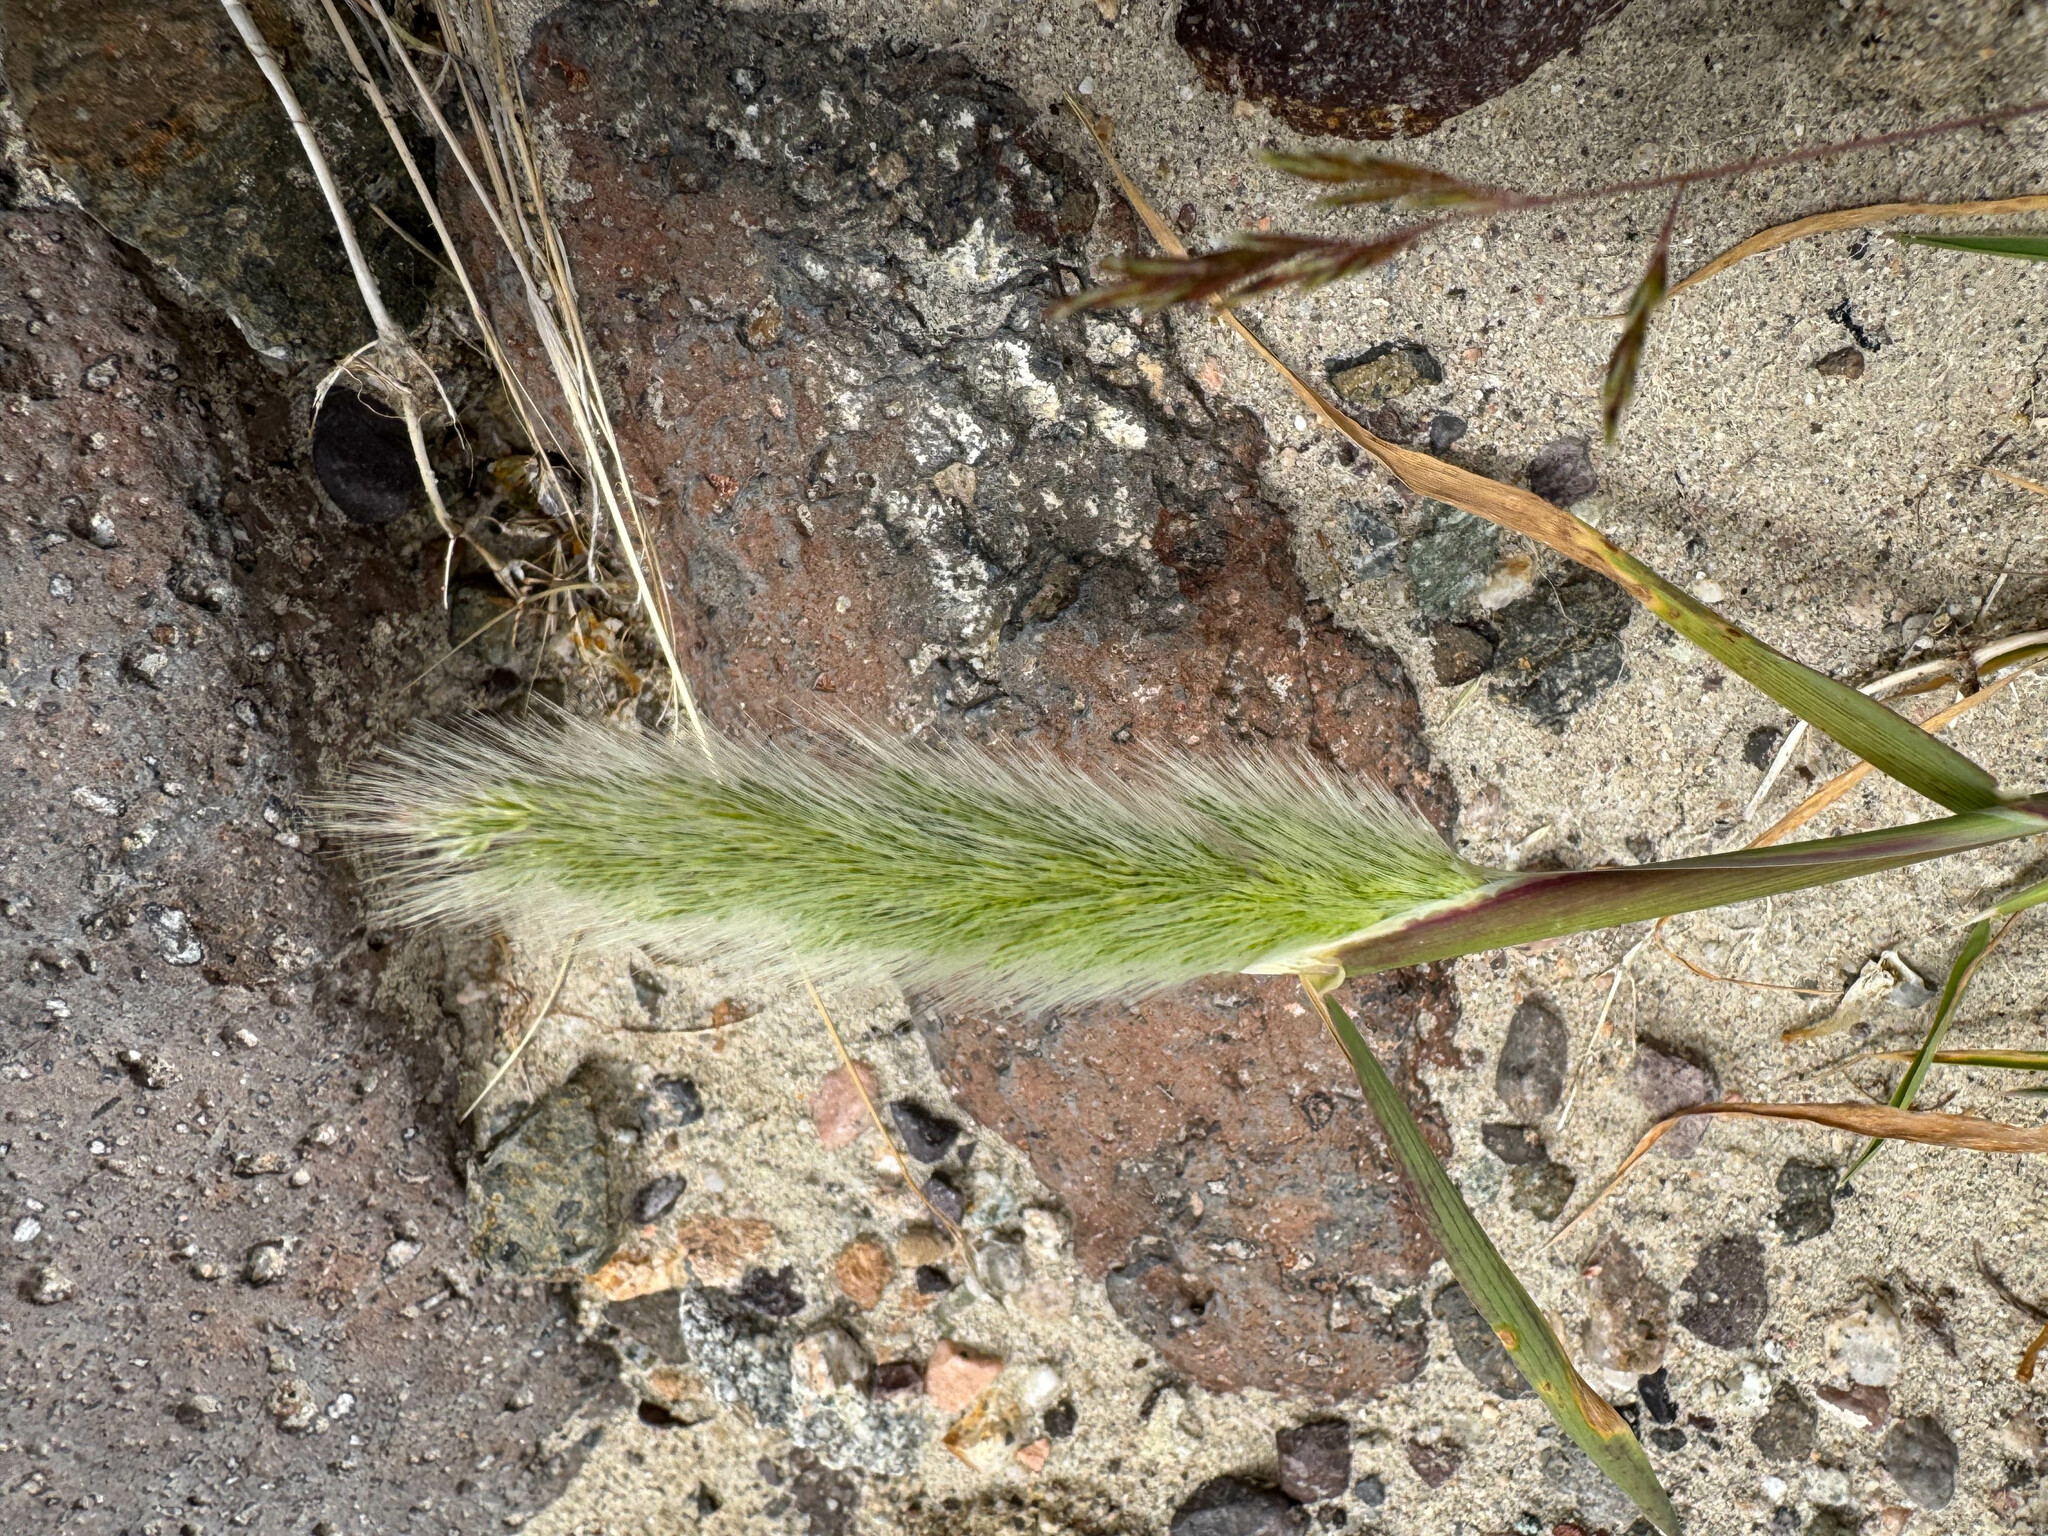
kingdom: Plantae
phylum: Tracheophyta
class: Liliopsida
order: Poales
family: Poaceae
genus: Polypogon
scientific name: Polypogon monspeliensis
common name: Annual rabbitsfoot grass
